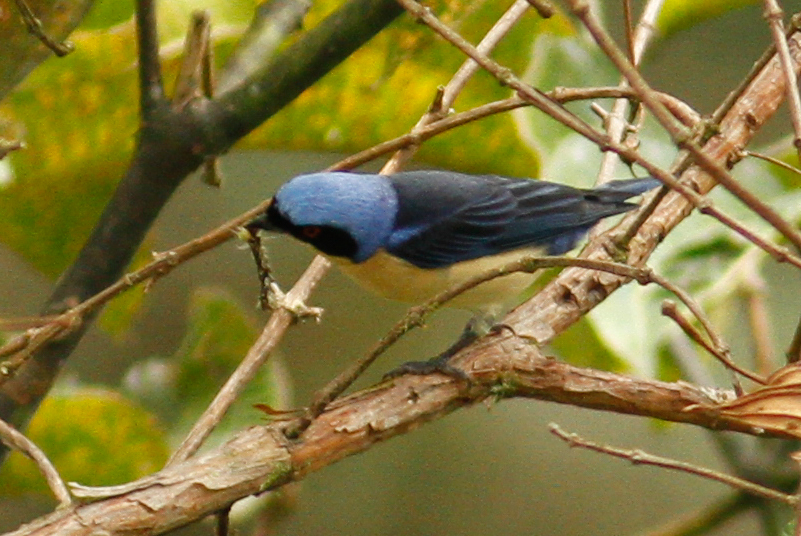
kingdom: Animalia
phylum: Chordata
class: Aves
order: Passeriformes
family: Thraupidae
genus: Pipraeidea
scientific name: Pipraeidea melanonota
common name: Fawn-breasted tanager
